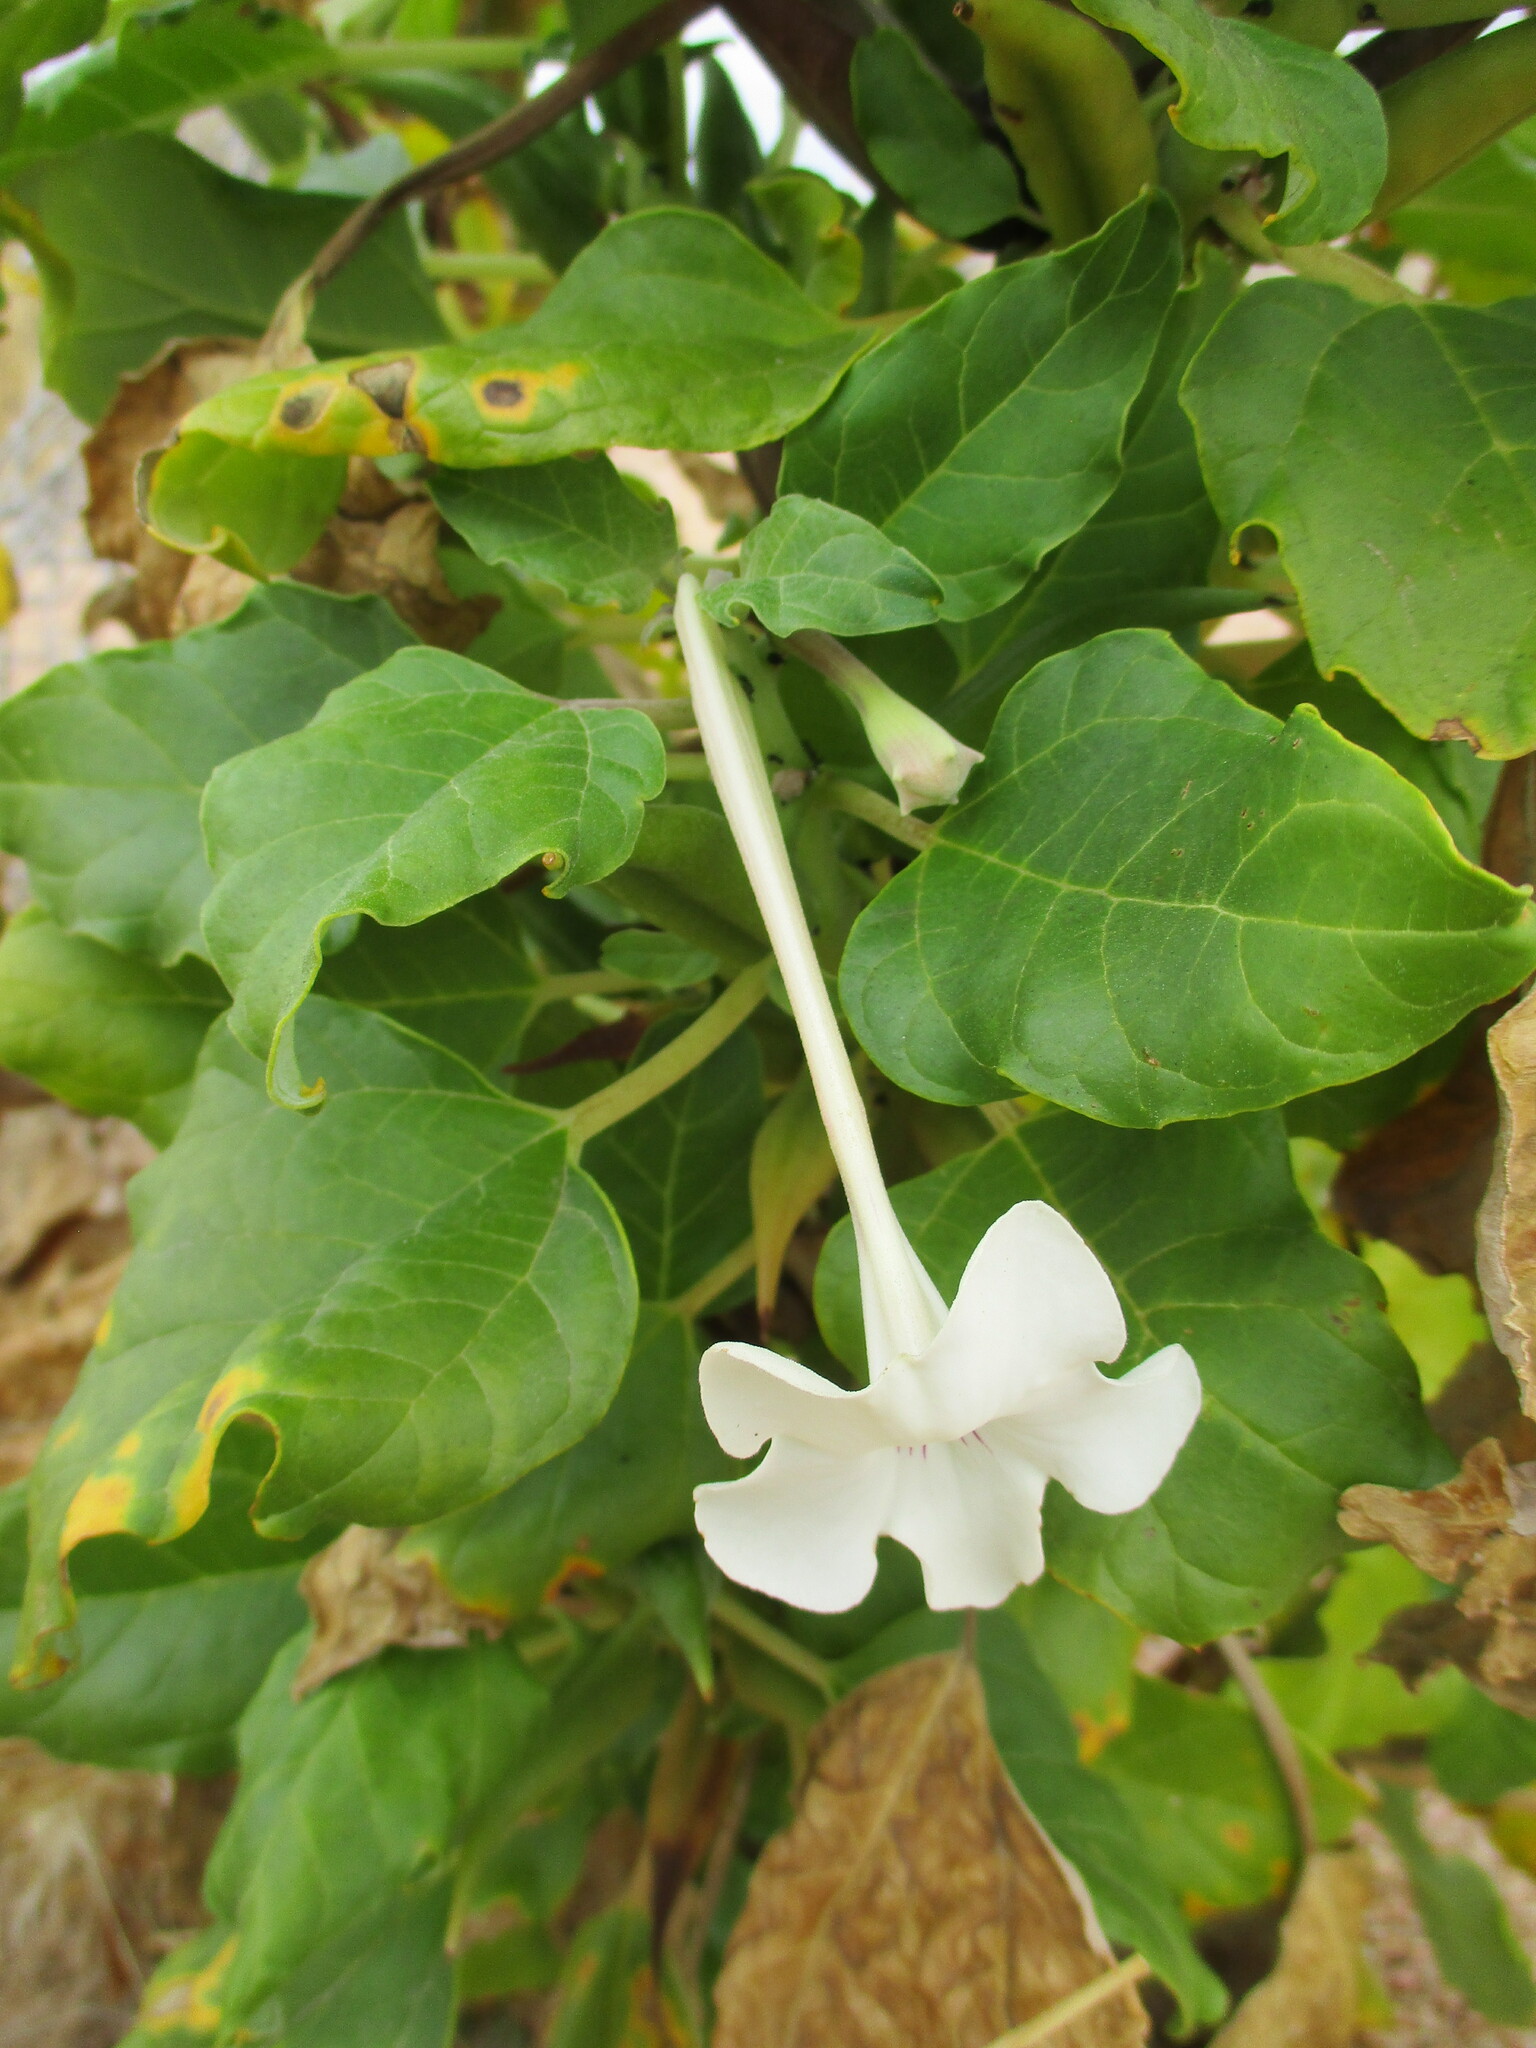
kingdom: Plantae
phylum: Tracheophyta
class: Magnoliopsida
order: Lamiales
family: Pedaliaceae
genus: Rogeria
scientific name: Rogeria longiflora
